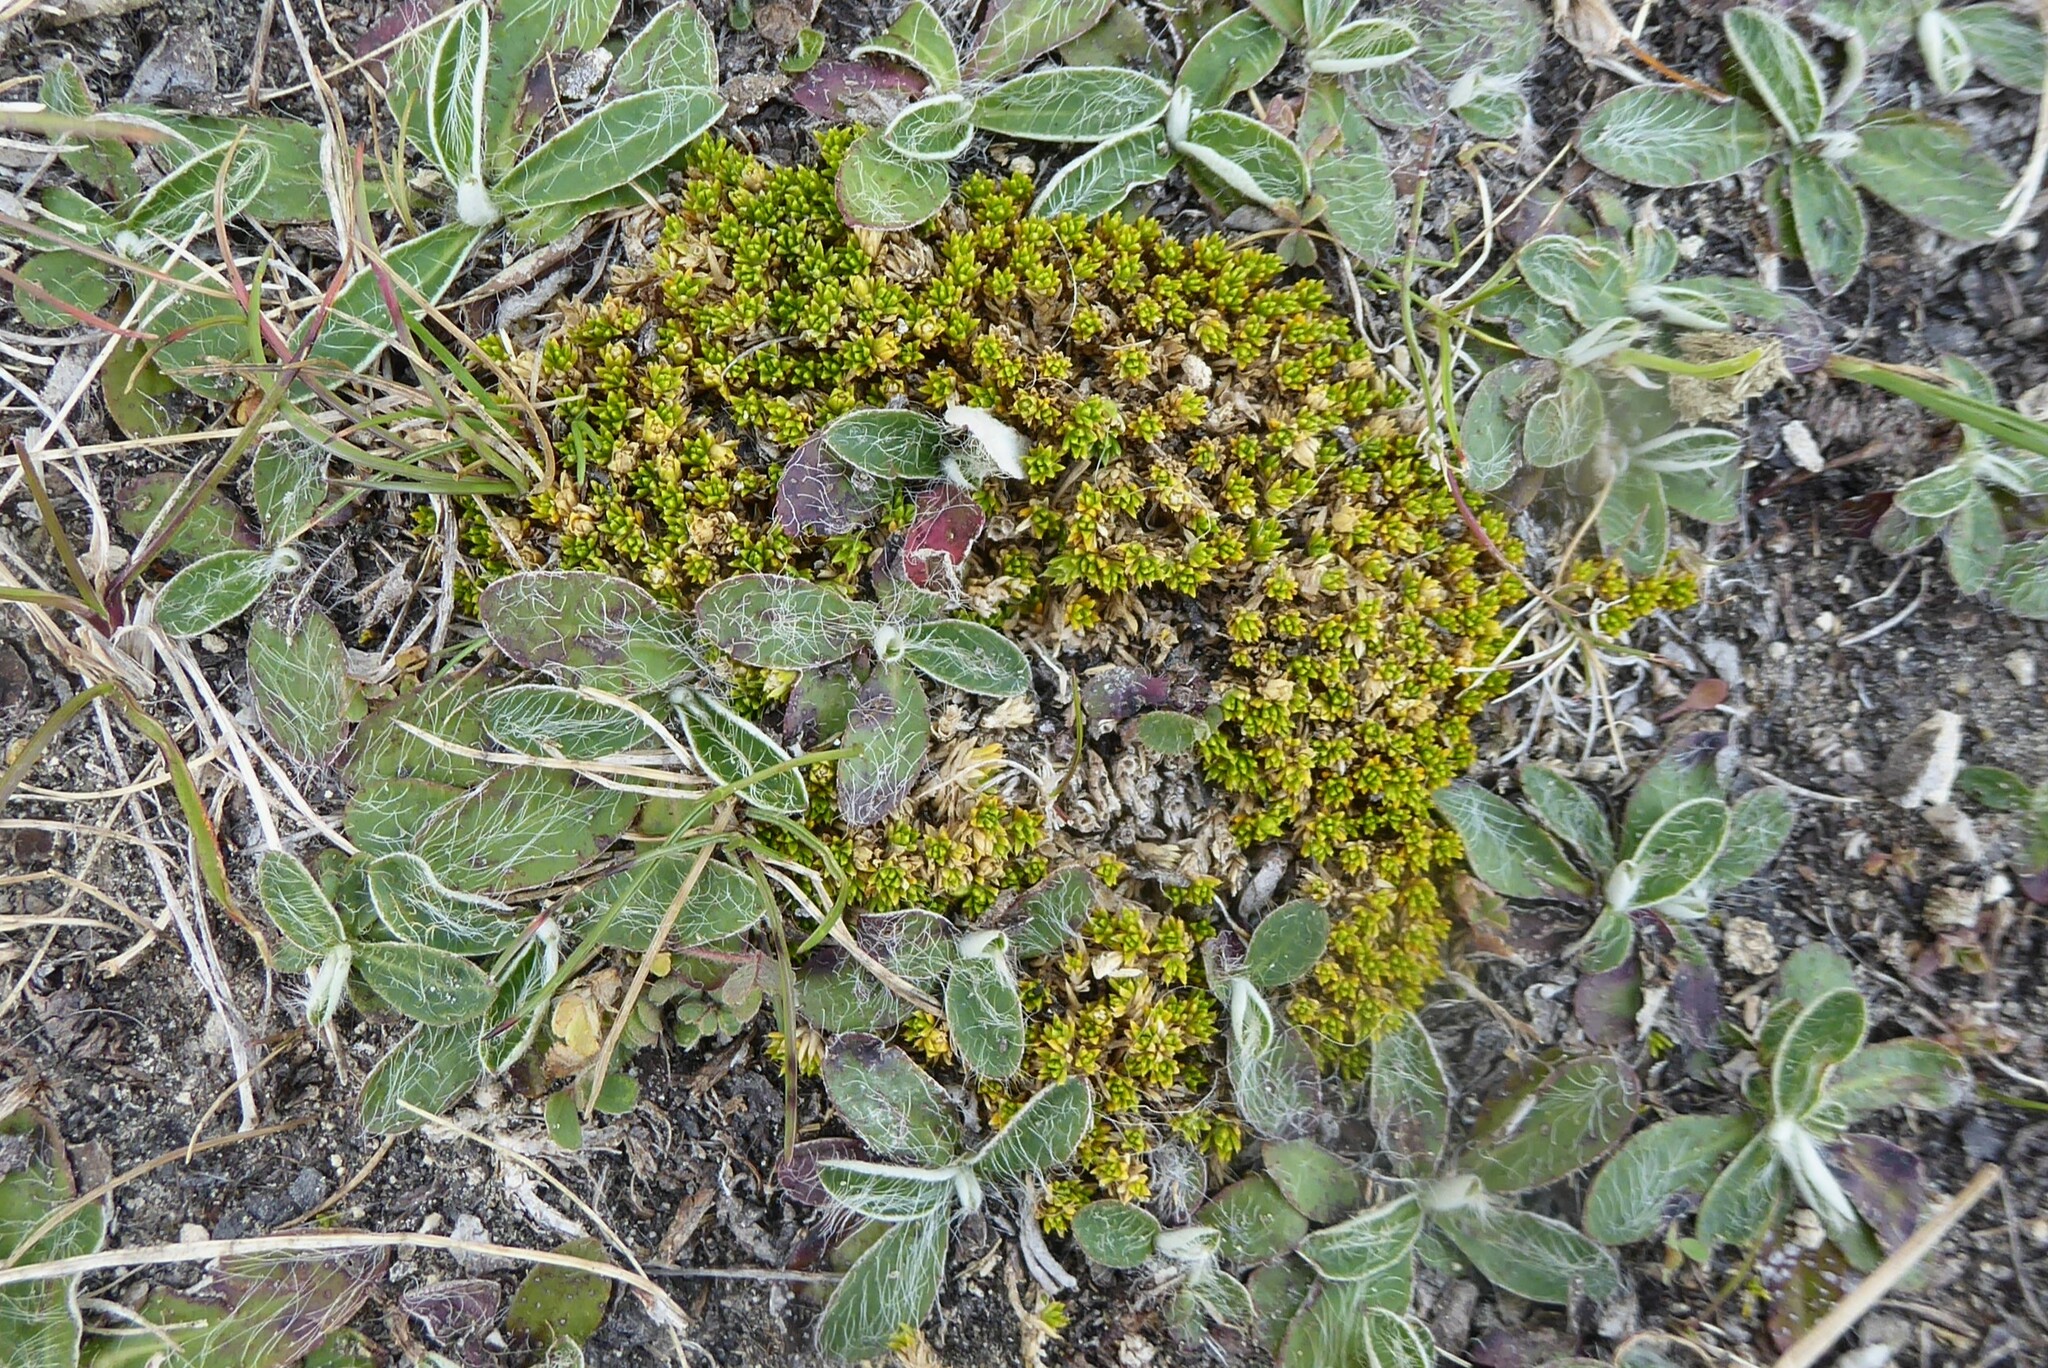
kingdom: Plantae
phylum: Tracheophyta
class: Magnoliopsida
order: Caryophyllales
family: Caryophyllaceae
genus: Colobanthus
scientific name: Colobanthus brevisepalus
